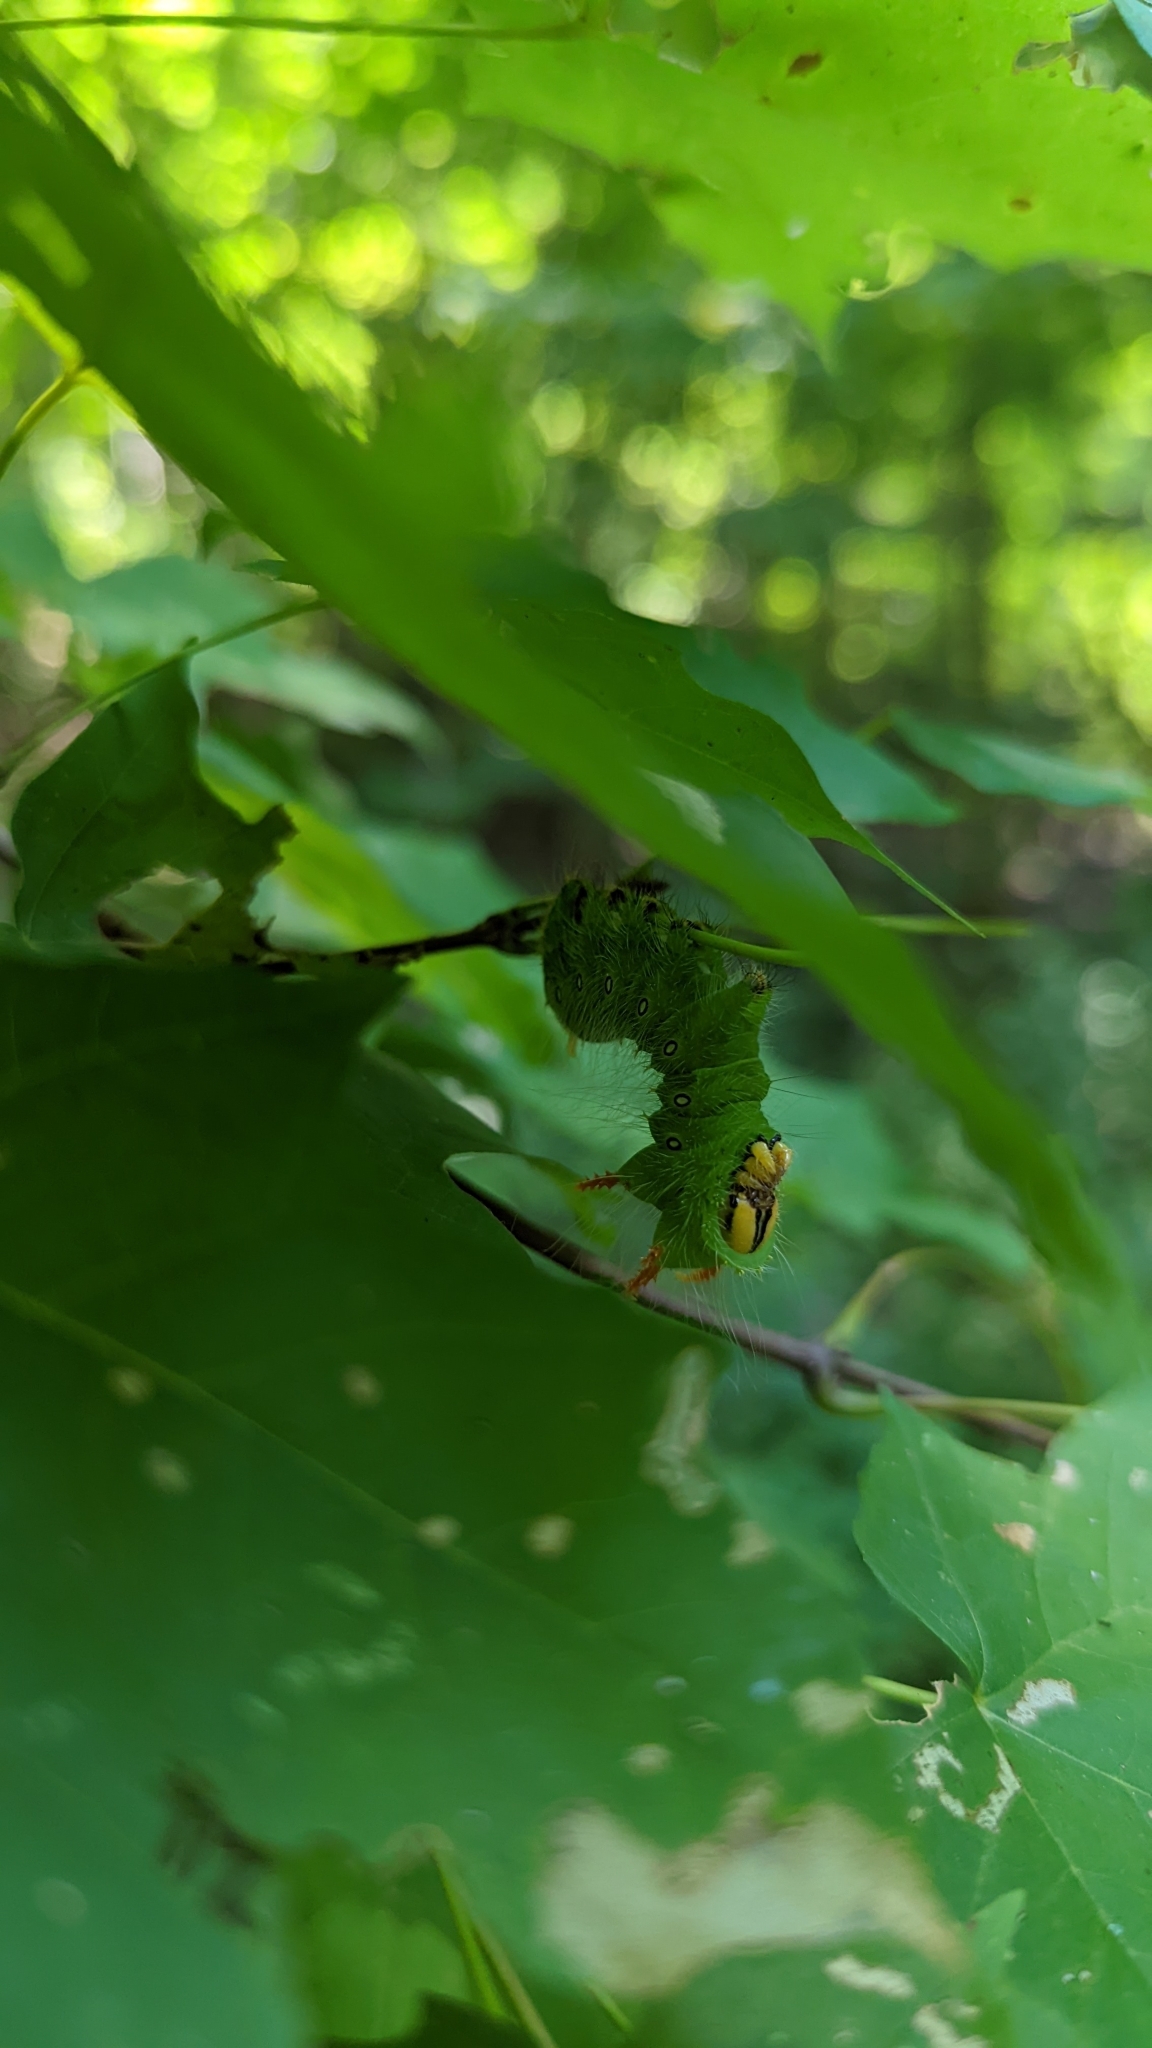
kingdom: Animalia
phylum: Arthropoda
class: Insecta
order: Lepidoptera
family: Saturniidae
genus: Eacles
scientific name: Eacles imperialis
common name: Imperial moth
